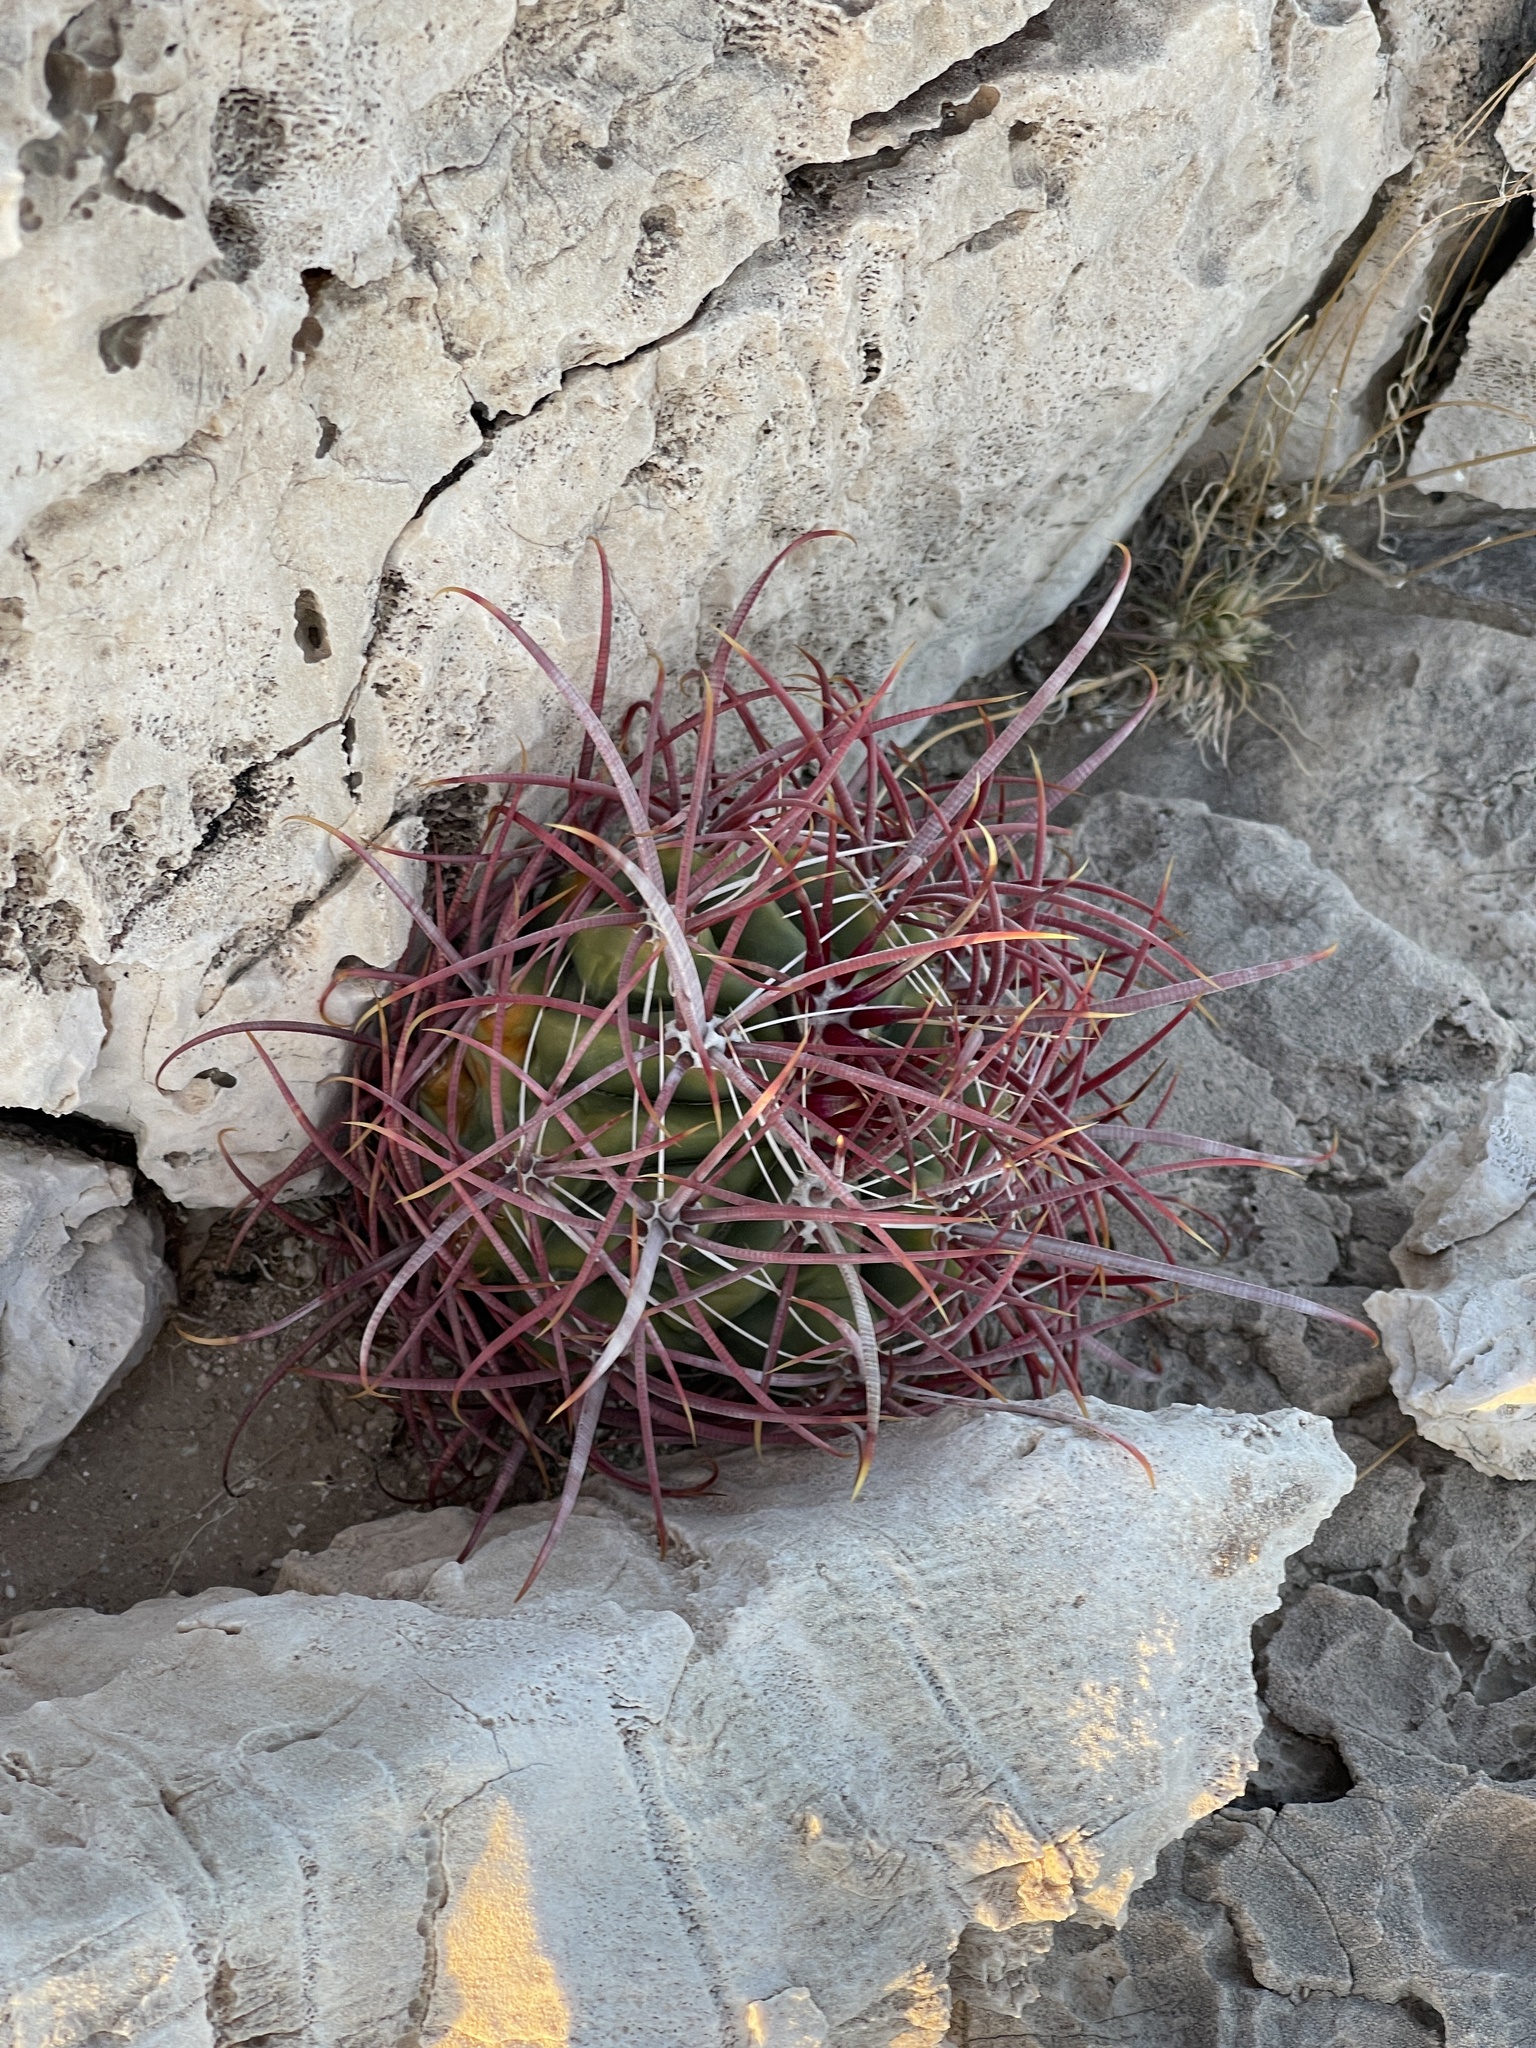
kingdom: Plantae
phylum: Tracheophyta
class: Magnoliopsida
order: Caryophyllales
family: Cactaceae
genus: Ferocactus
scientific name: Ferocactus cylindraceus
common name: California barrel cactus
